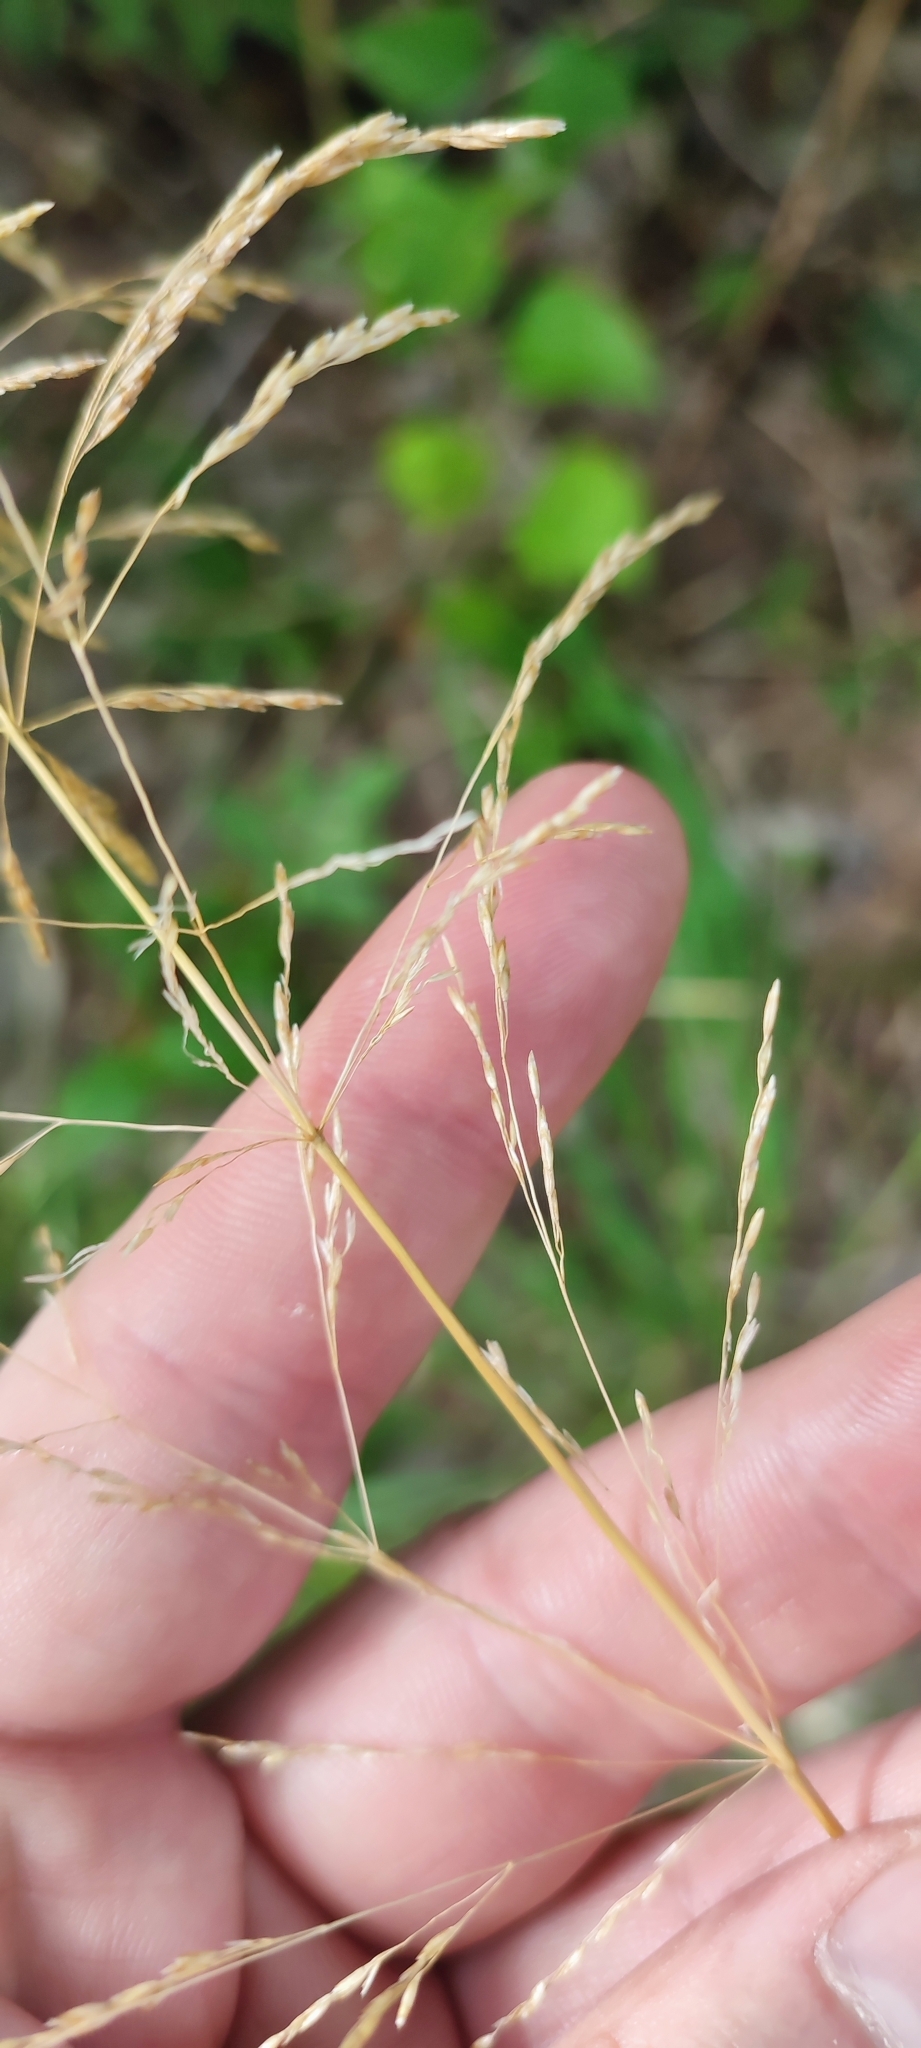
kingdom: Plantae
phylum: Tracheophyta
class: Liliopsida
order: Poales
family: Poaceae
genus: Agrostis
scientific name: Agrostis gigantea
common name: Black bent
